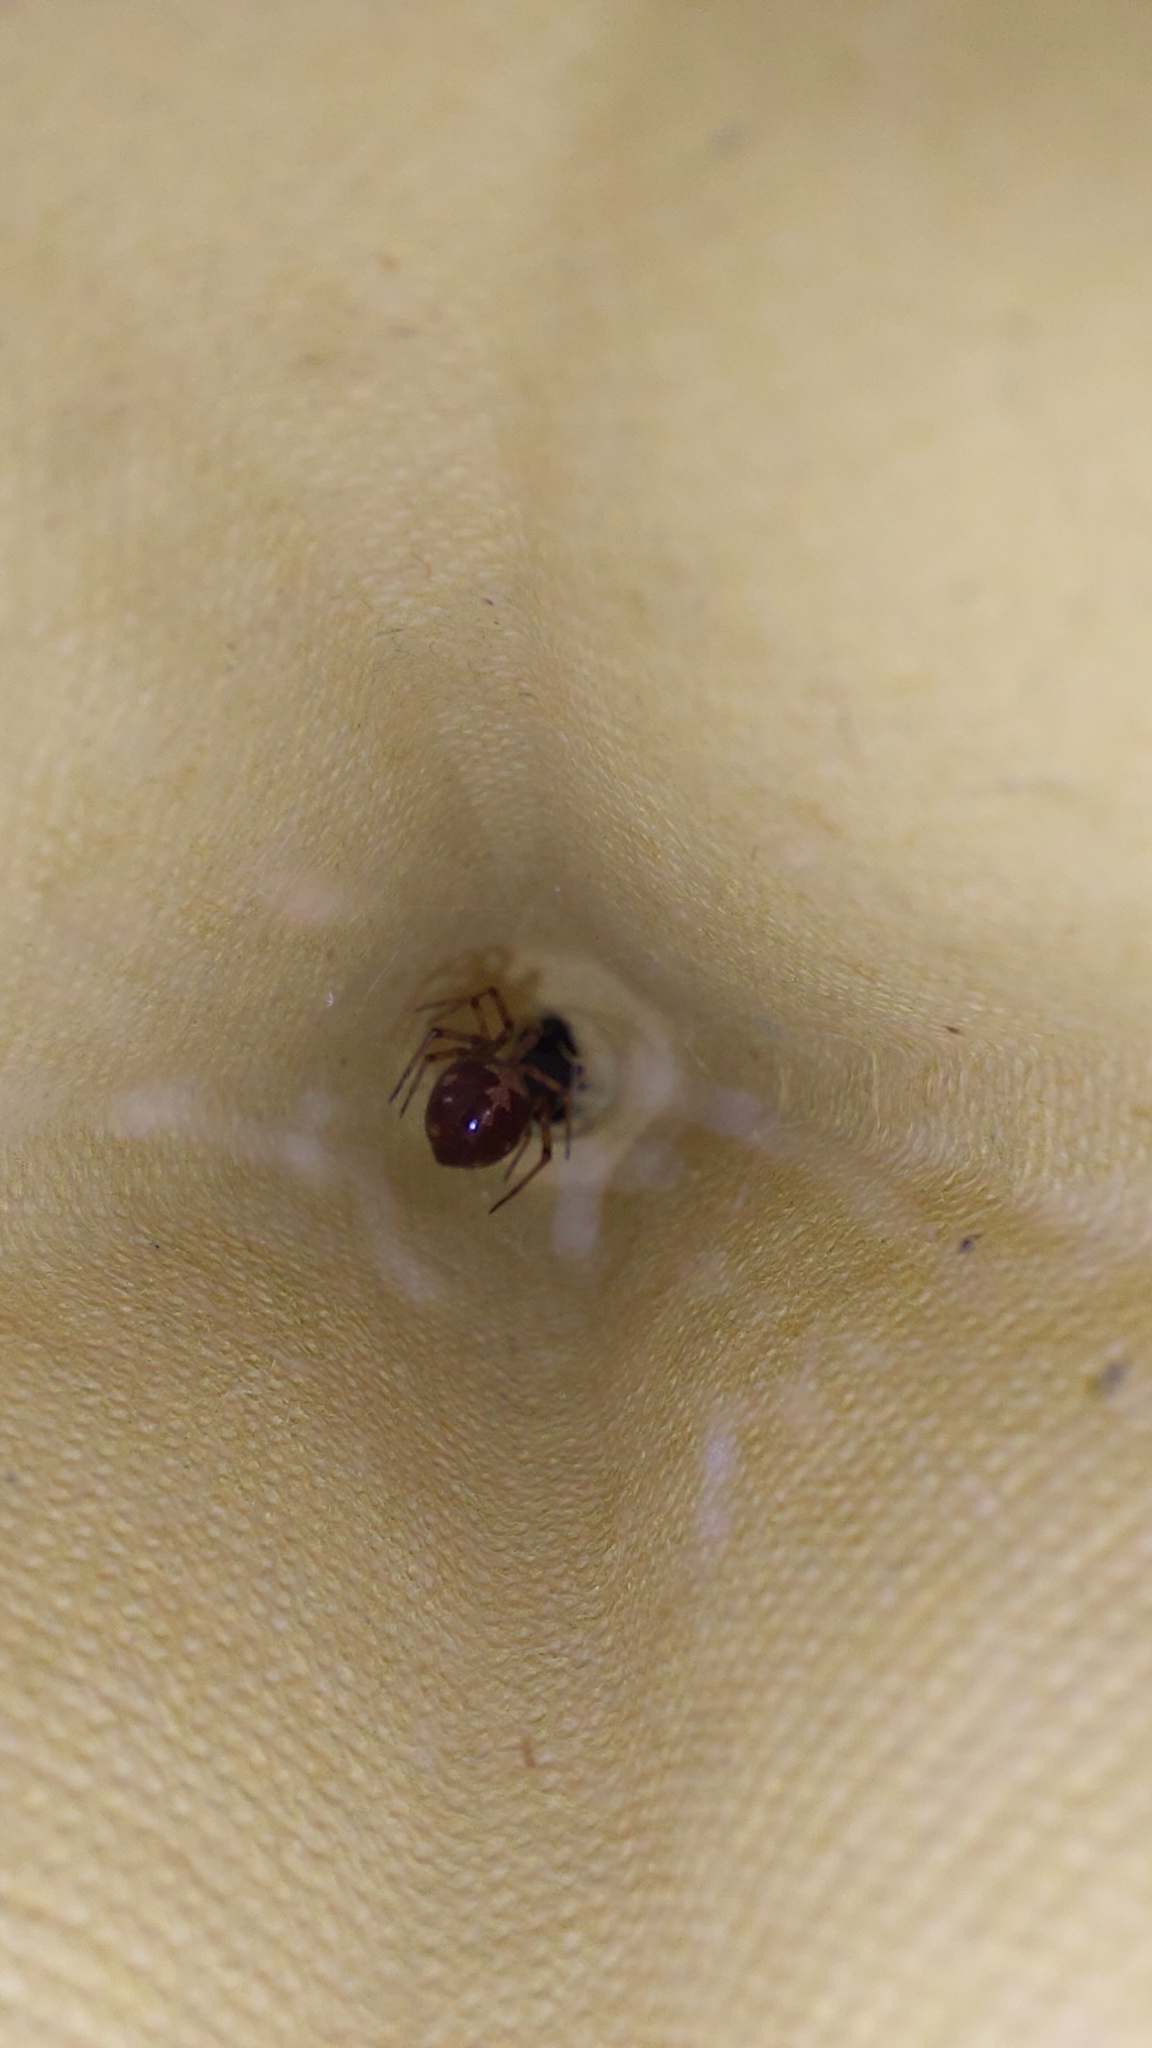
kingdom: Animalia
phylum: Arthropoda
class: Arachnida
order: Araneae
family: Theridiidae
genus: Steatoda
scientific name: Steatoda triangulosa
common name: Triangulate bud spider
